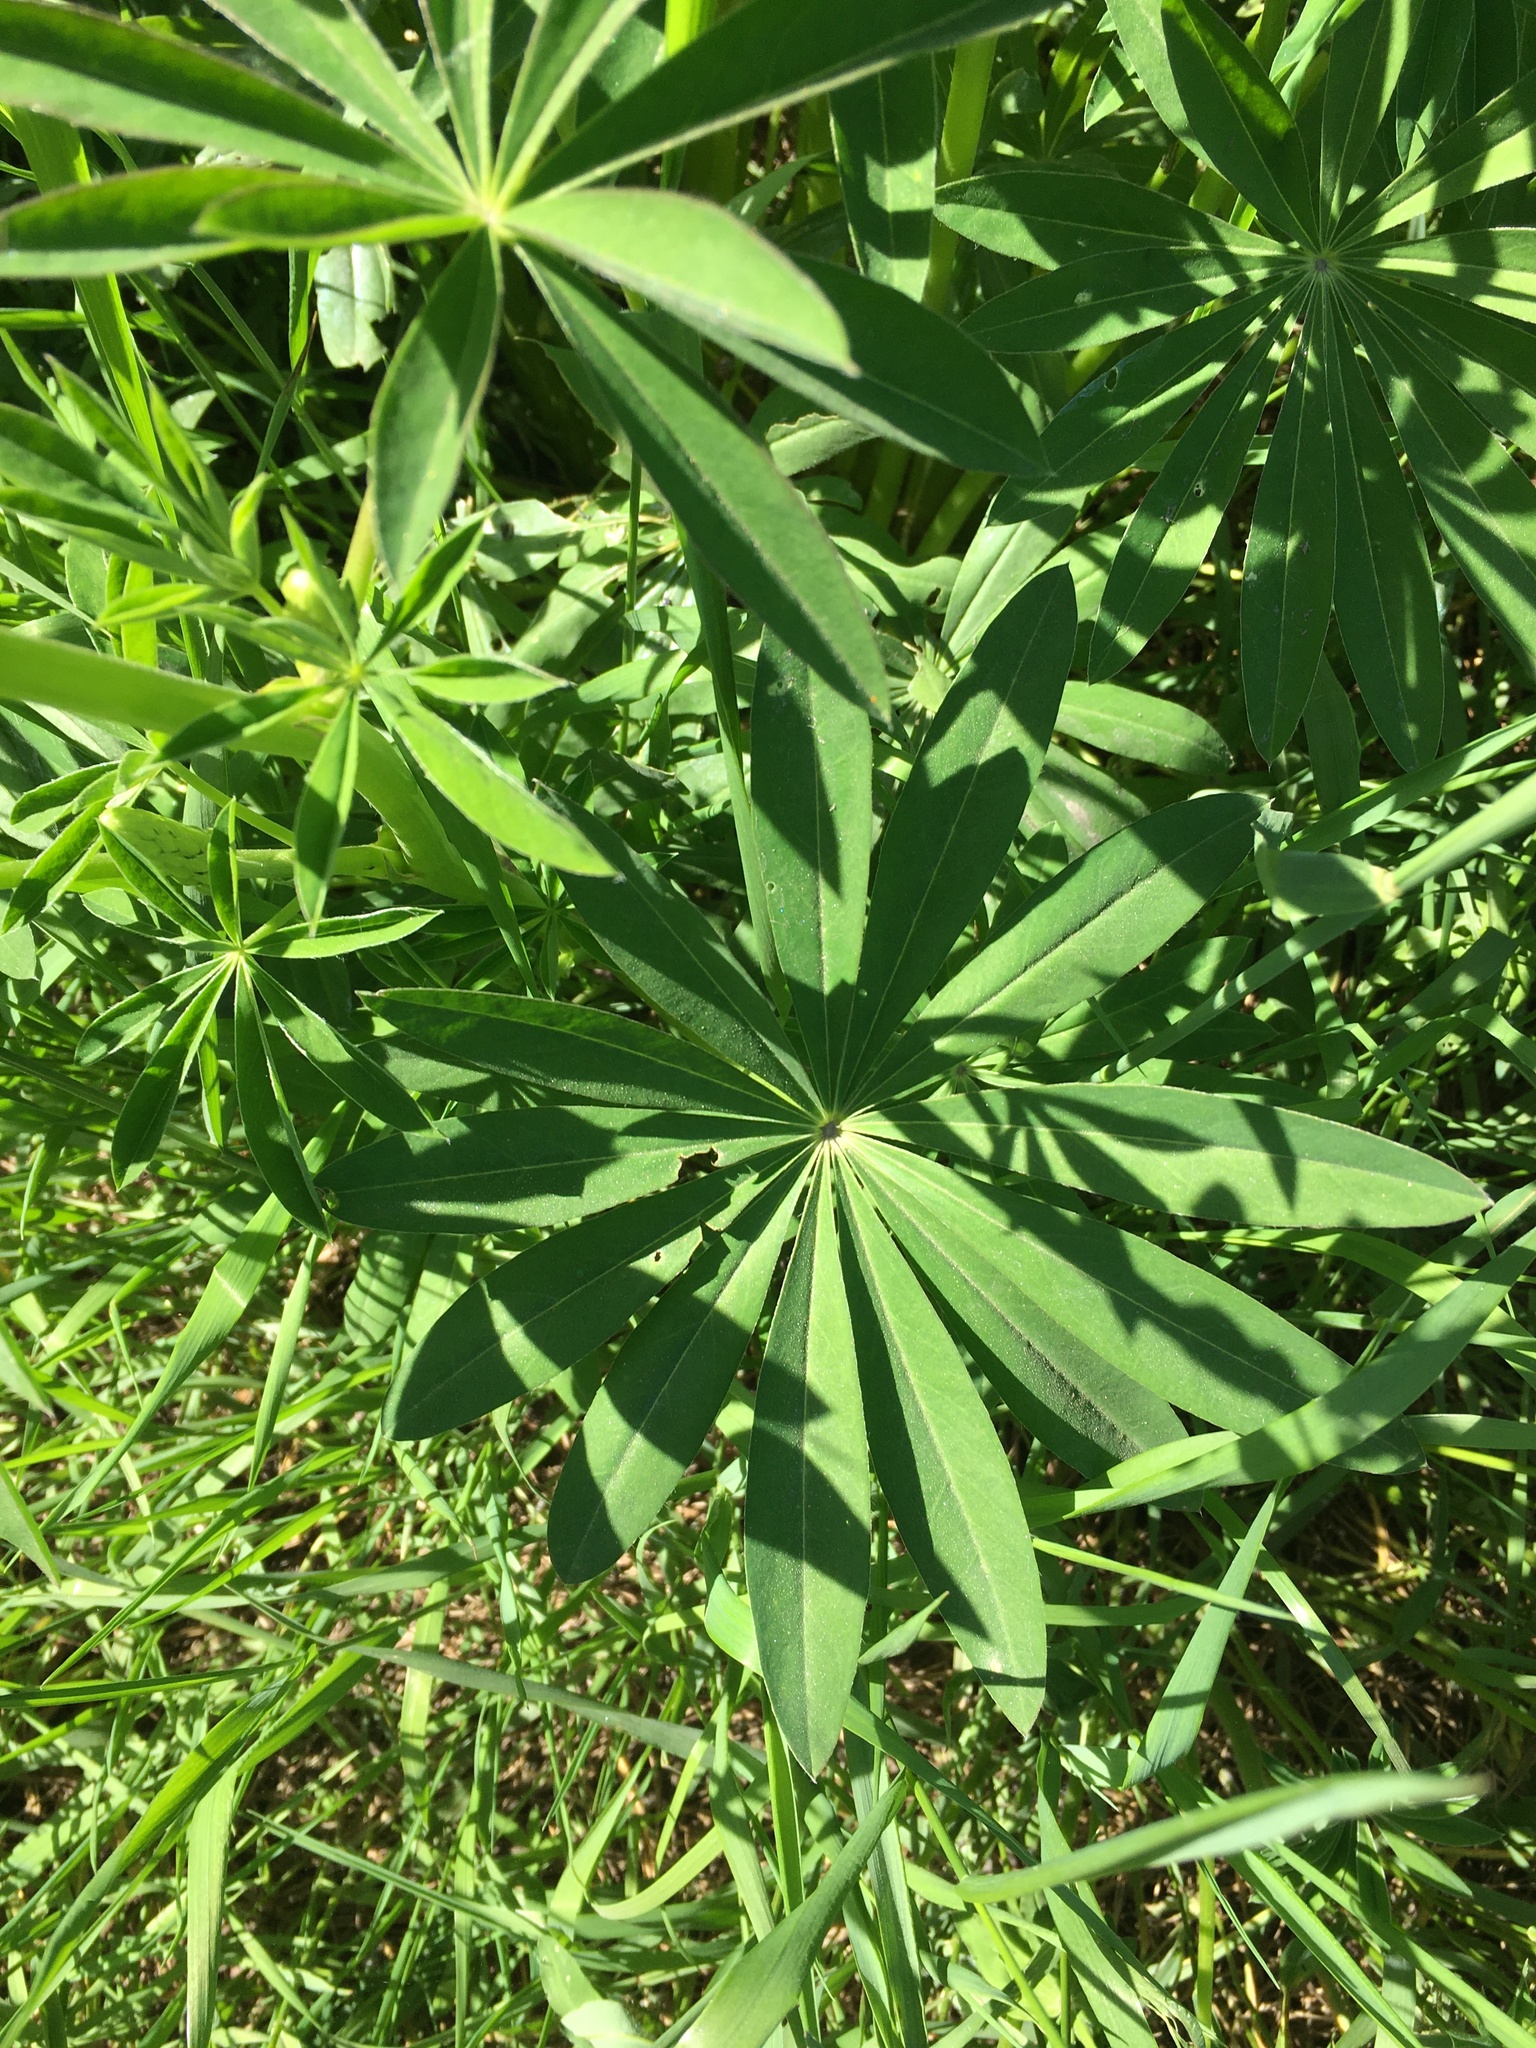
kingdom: Plantae
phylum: Tracheophyta
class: Magnoliopsida
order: Fabales
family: Fabaceae
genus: Lupinus
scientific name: Lupinus polyphyllus
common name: Garden lupin
